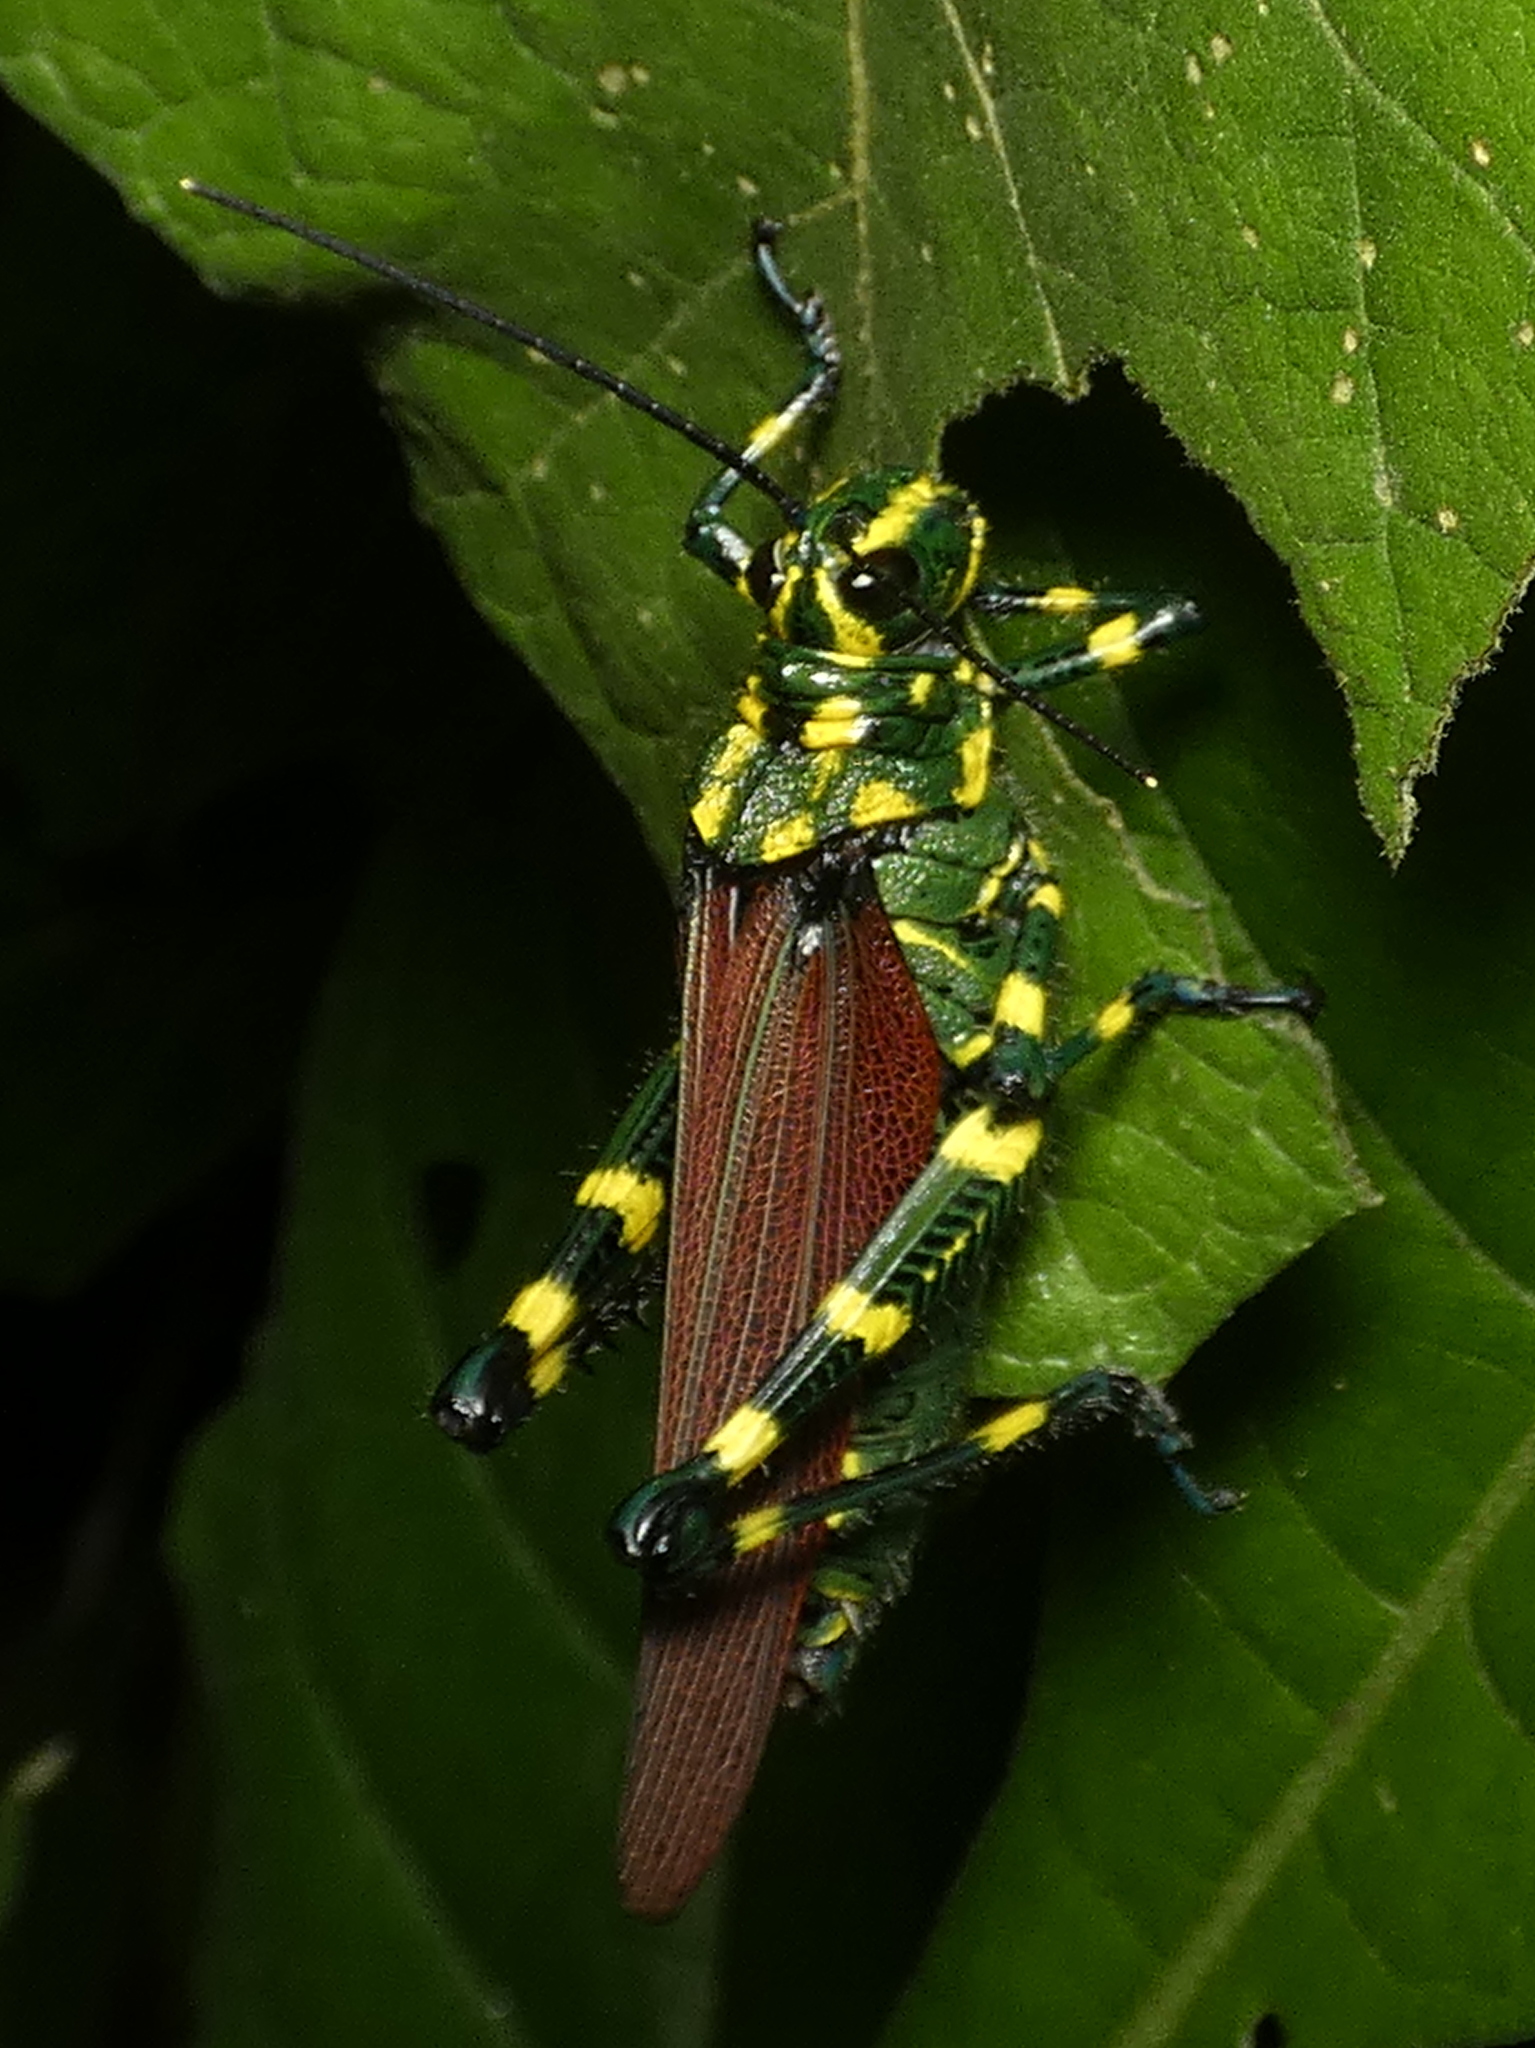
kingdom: Animalia
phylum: Arthropoda
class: Insecta
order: Orthoptera
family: Romaleidae
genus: Chromacris
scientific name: Chromacris speciosa
